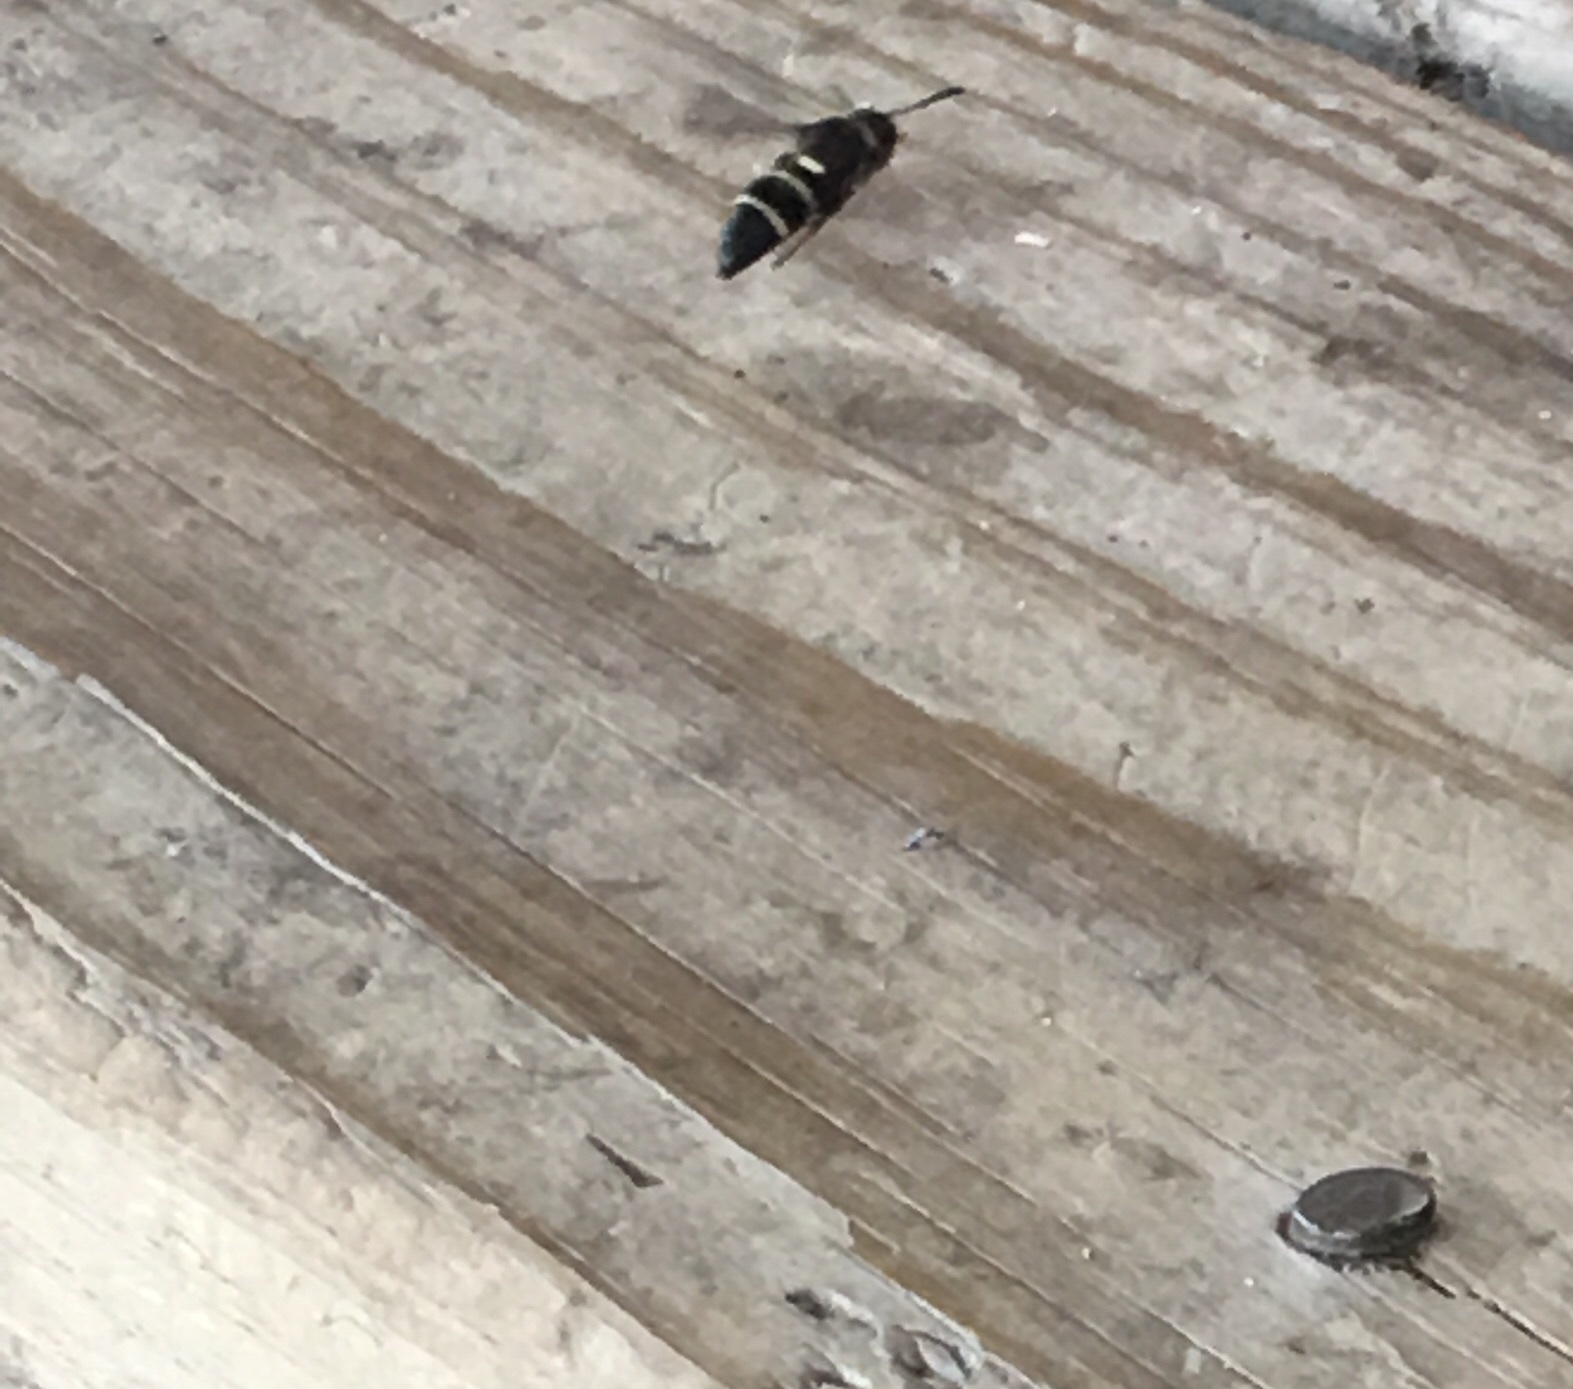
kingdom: Animalia
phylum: Arthropoda
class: Insecta
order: Hymenoptera
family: Eumenidae
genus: Euodynerus
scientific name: Euodynerus megaera
